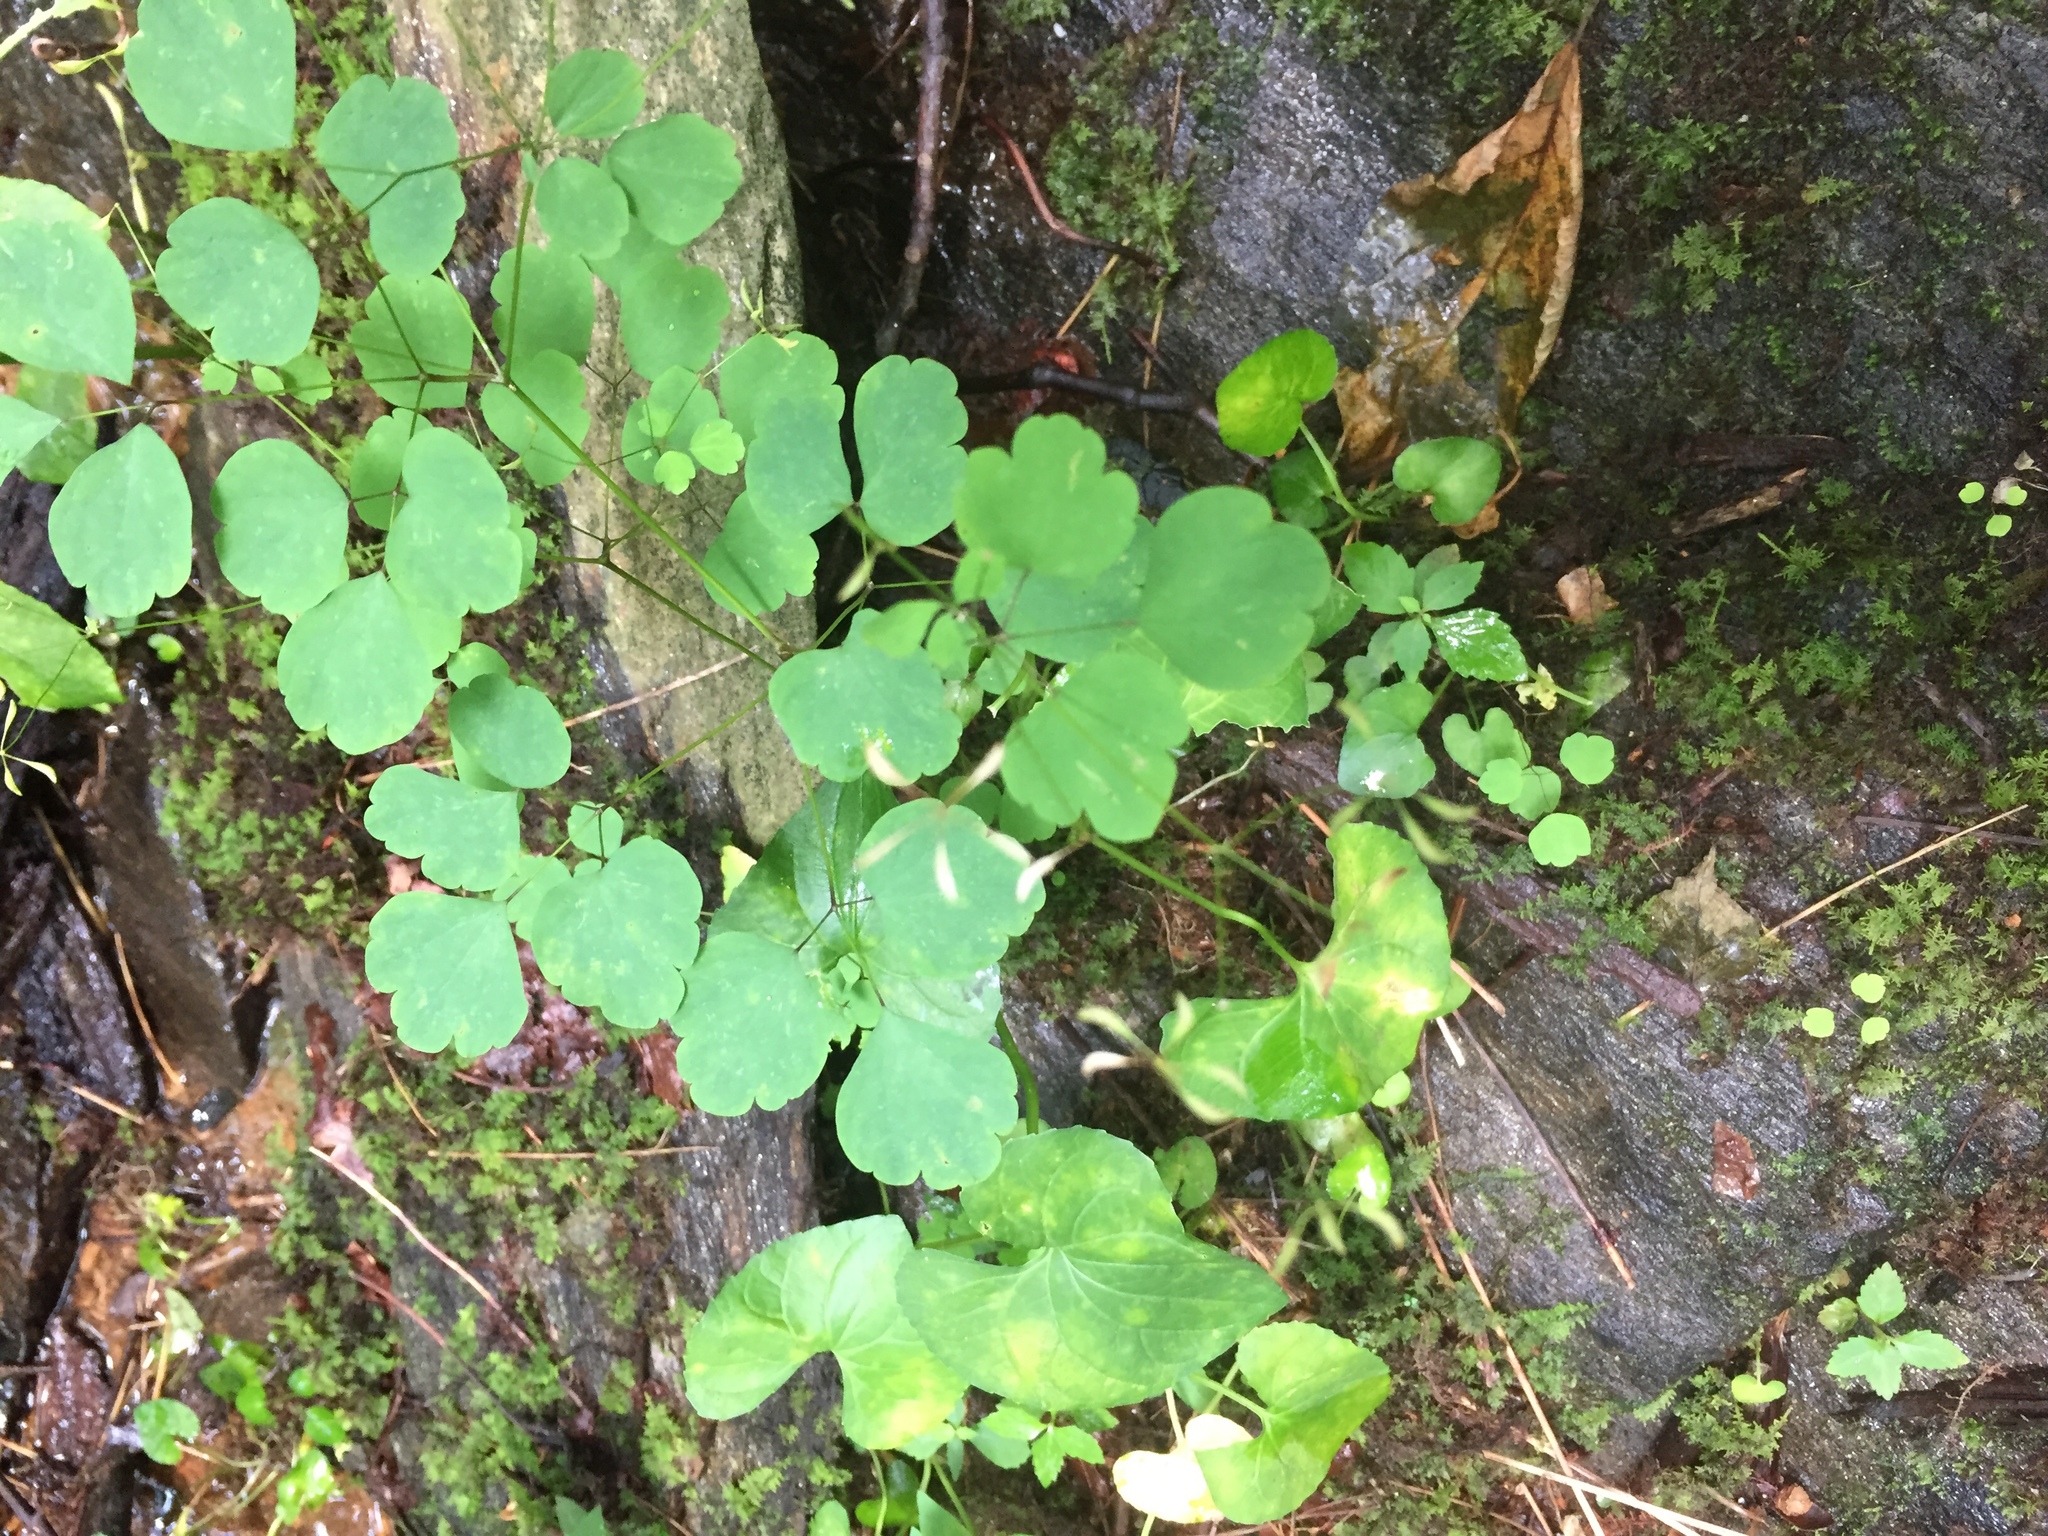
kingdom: Plantae
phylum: Tracheophyta
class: Magnoliopsida
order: Ranunculales
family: Ranunculaceae
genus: Thalictrum
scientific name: Thalictrum clavatum
